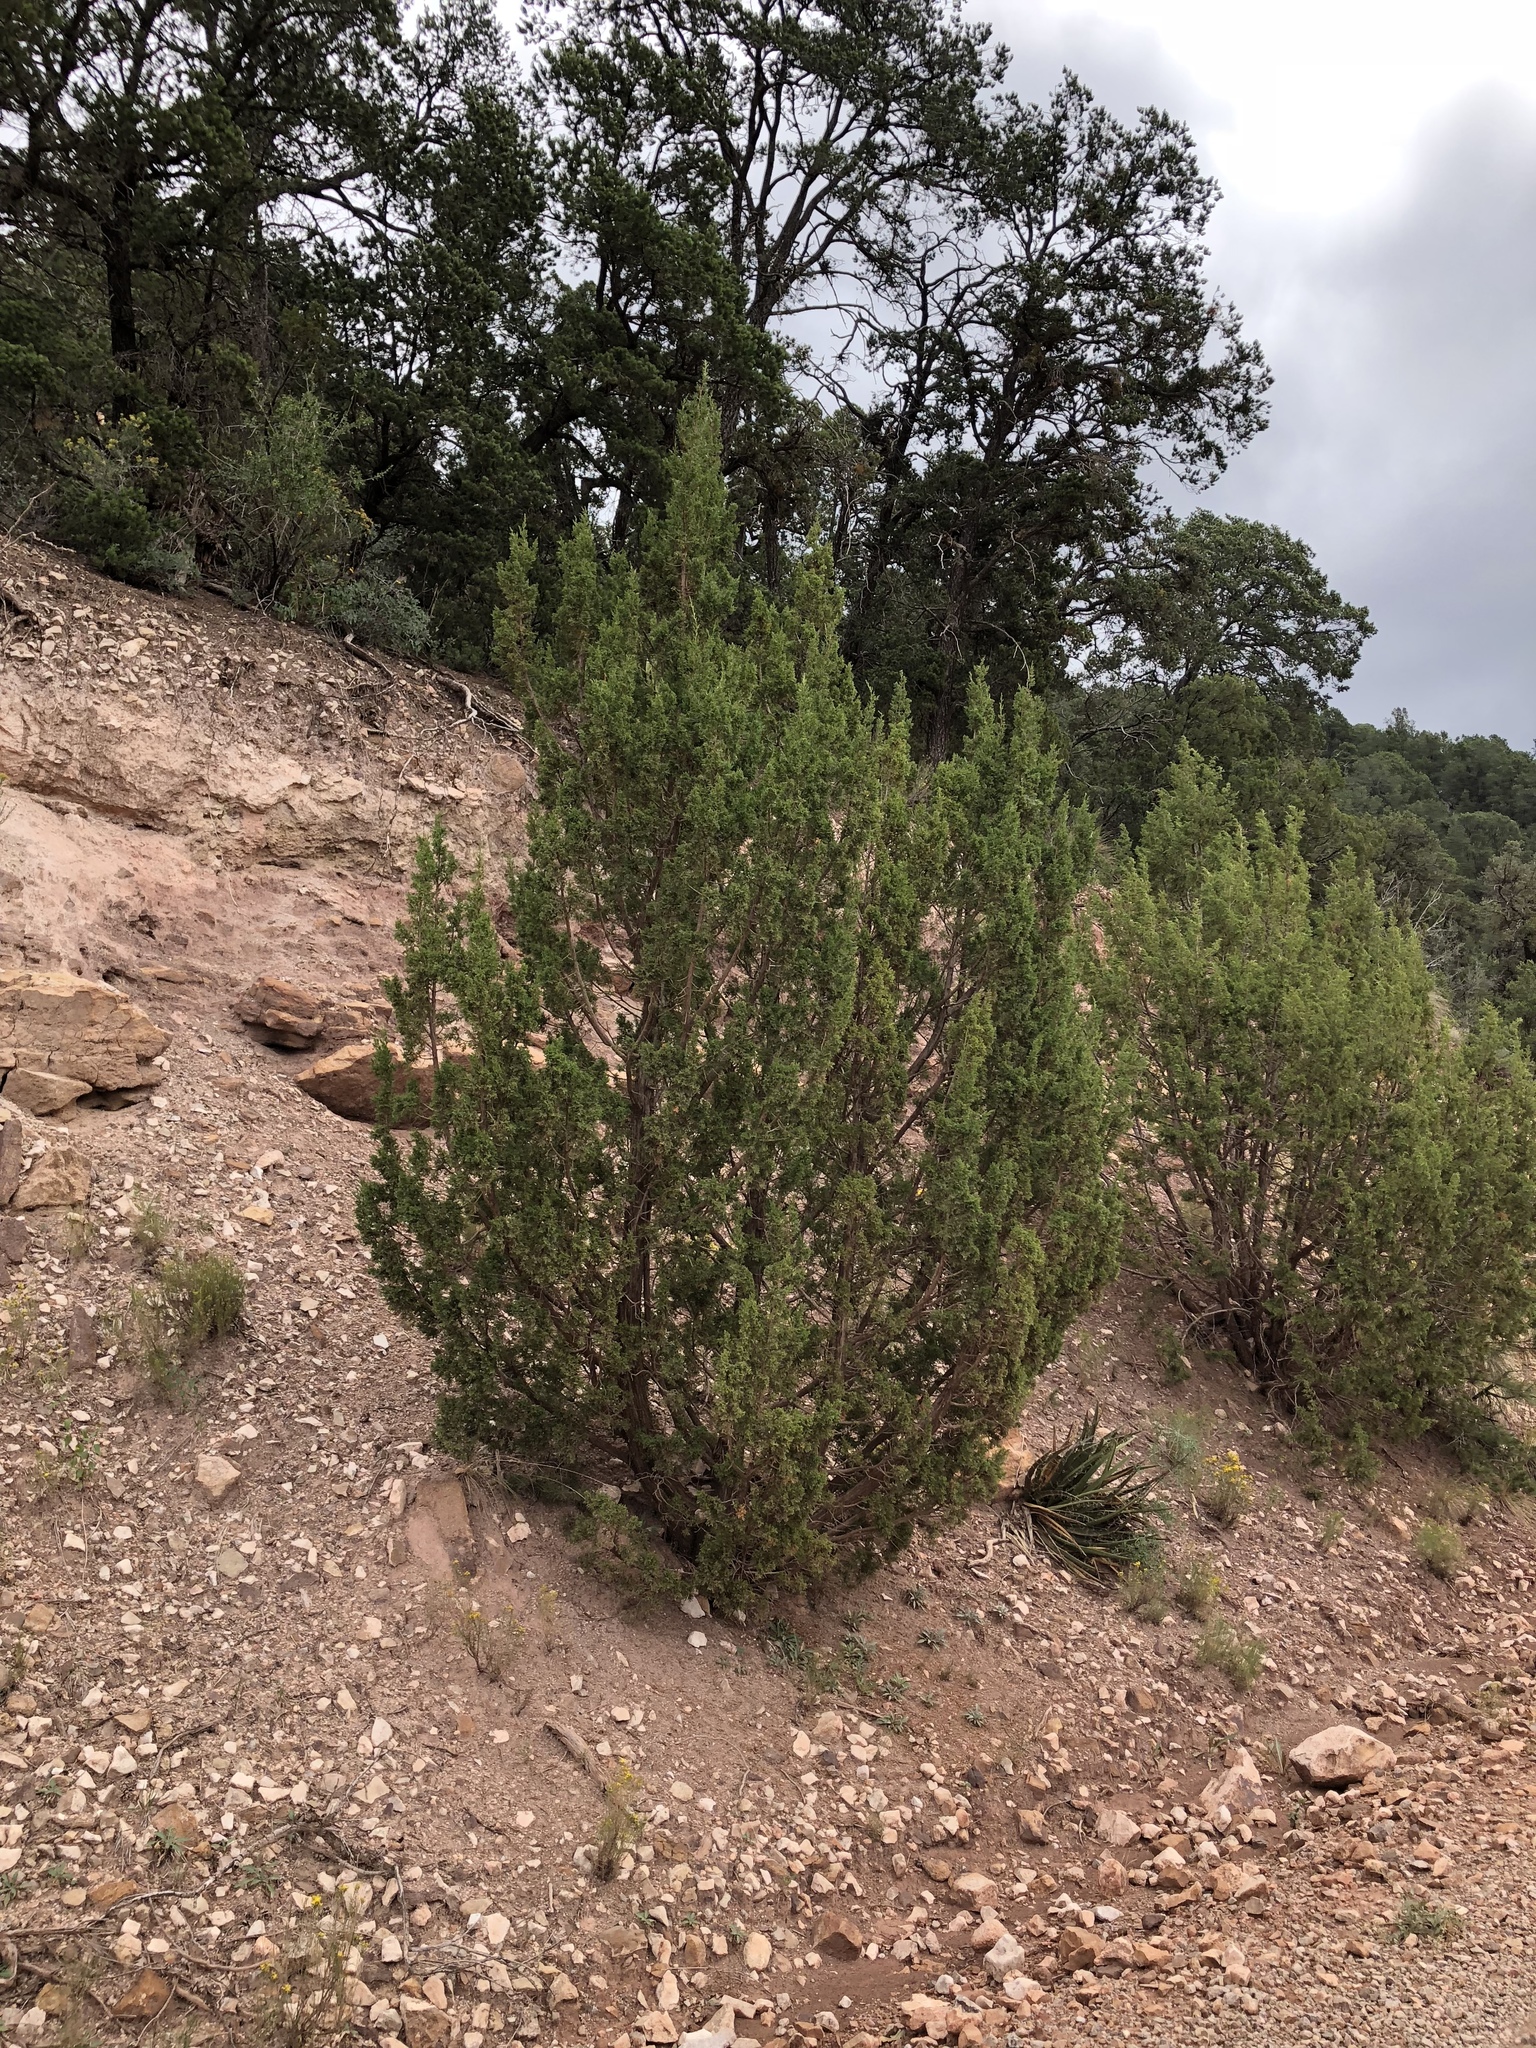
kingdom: Plantae
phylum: Tracheophyta
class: Pinopsida
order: Pinales
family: Cupressaceae
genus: Juniperus
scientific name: Juniperus monosperma
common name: One-seed juniper
